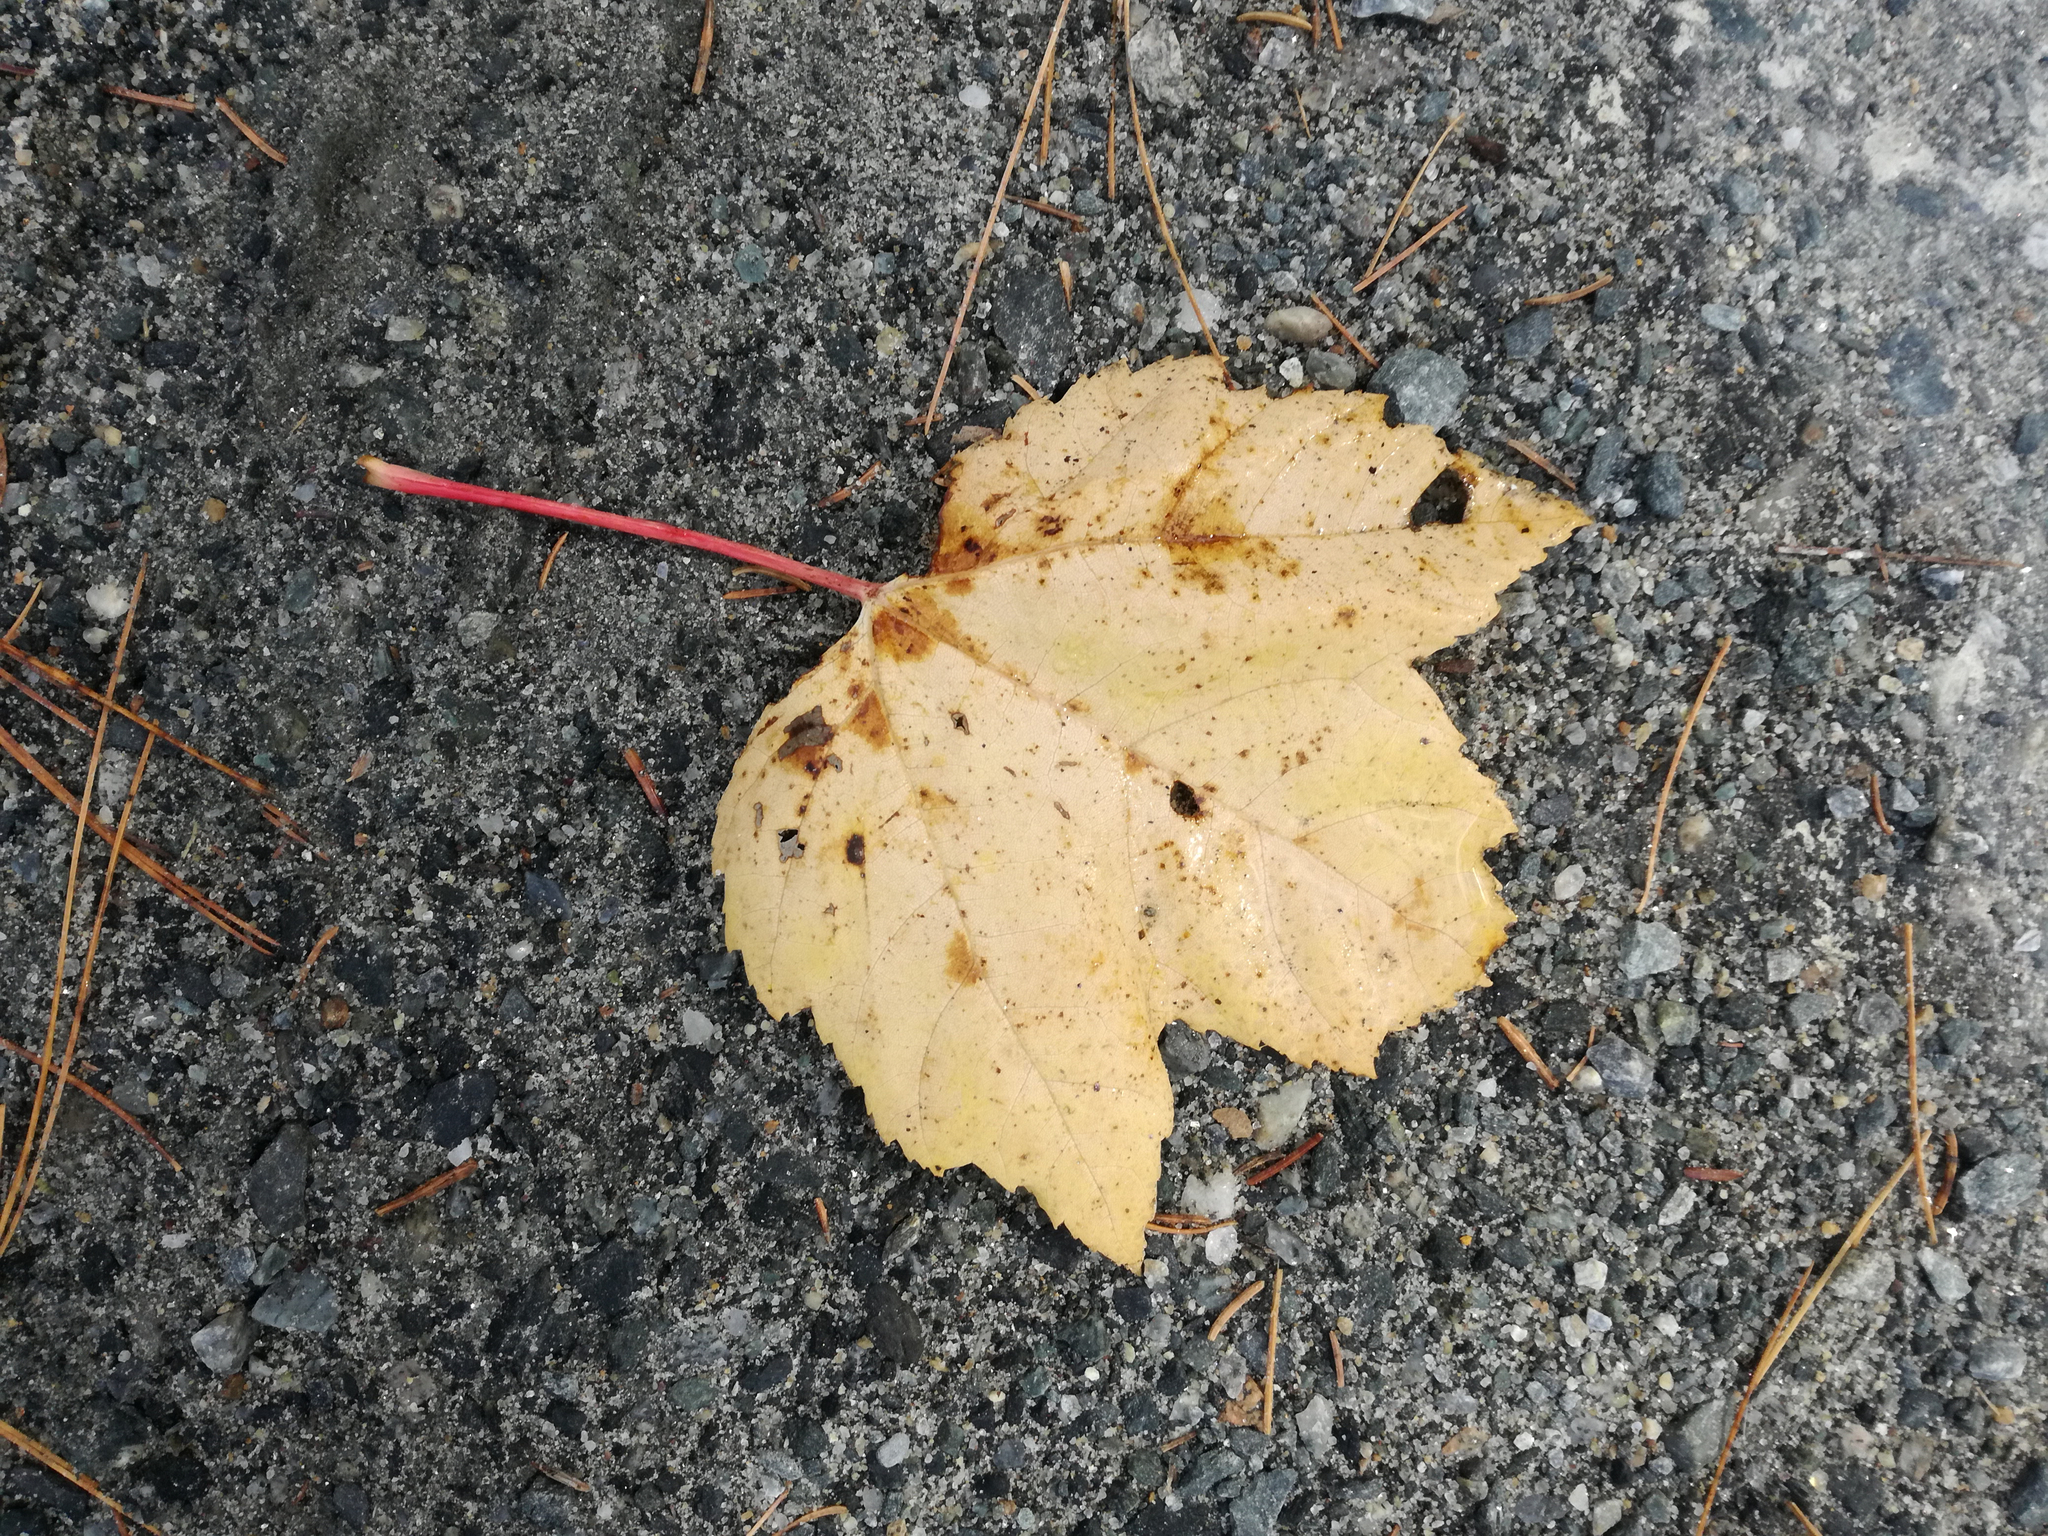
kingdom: Plantae
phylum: Tracheophyta
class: Magnoliopsida
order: Sapindales
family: Sapindaceae
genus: Acer
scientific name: Acer rubrum
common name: Red maple
